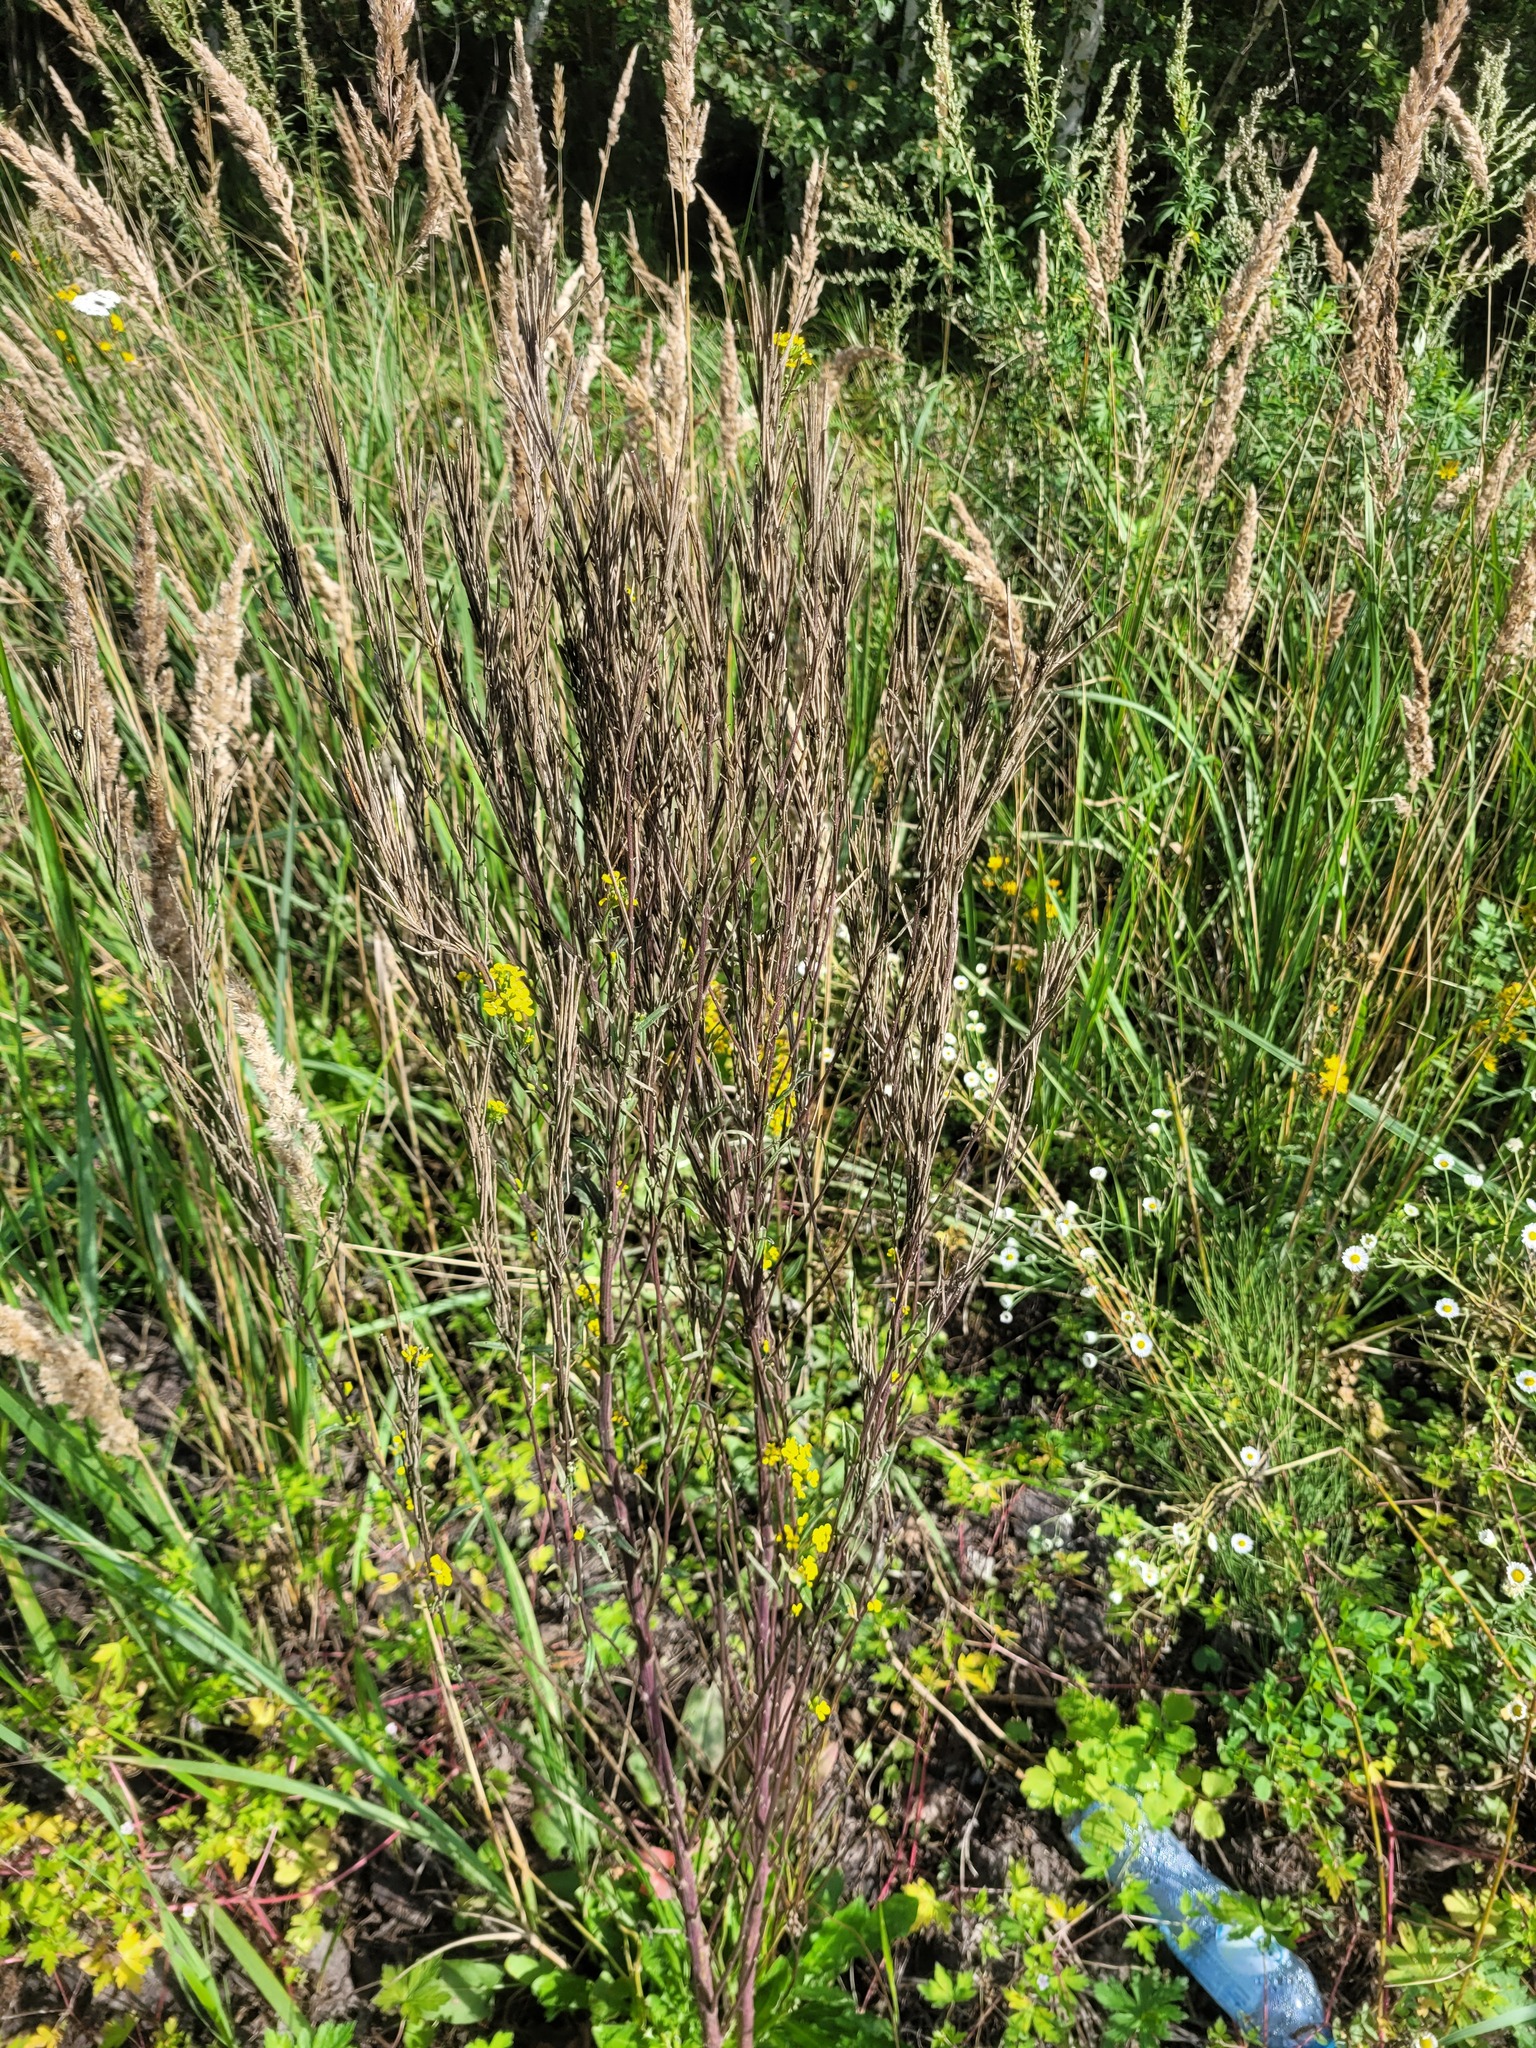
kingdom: Plantae
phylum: Tracheophyta
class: Magnoliopsida
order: Brassicales
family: Brassicaceae
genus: Erysimum
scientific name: Erysimum hieraciifolium
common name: European wallflower
